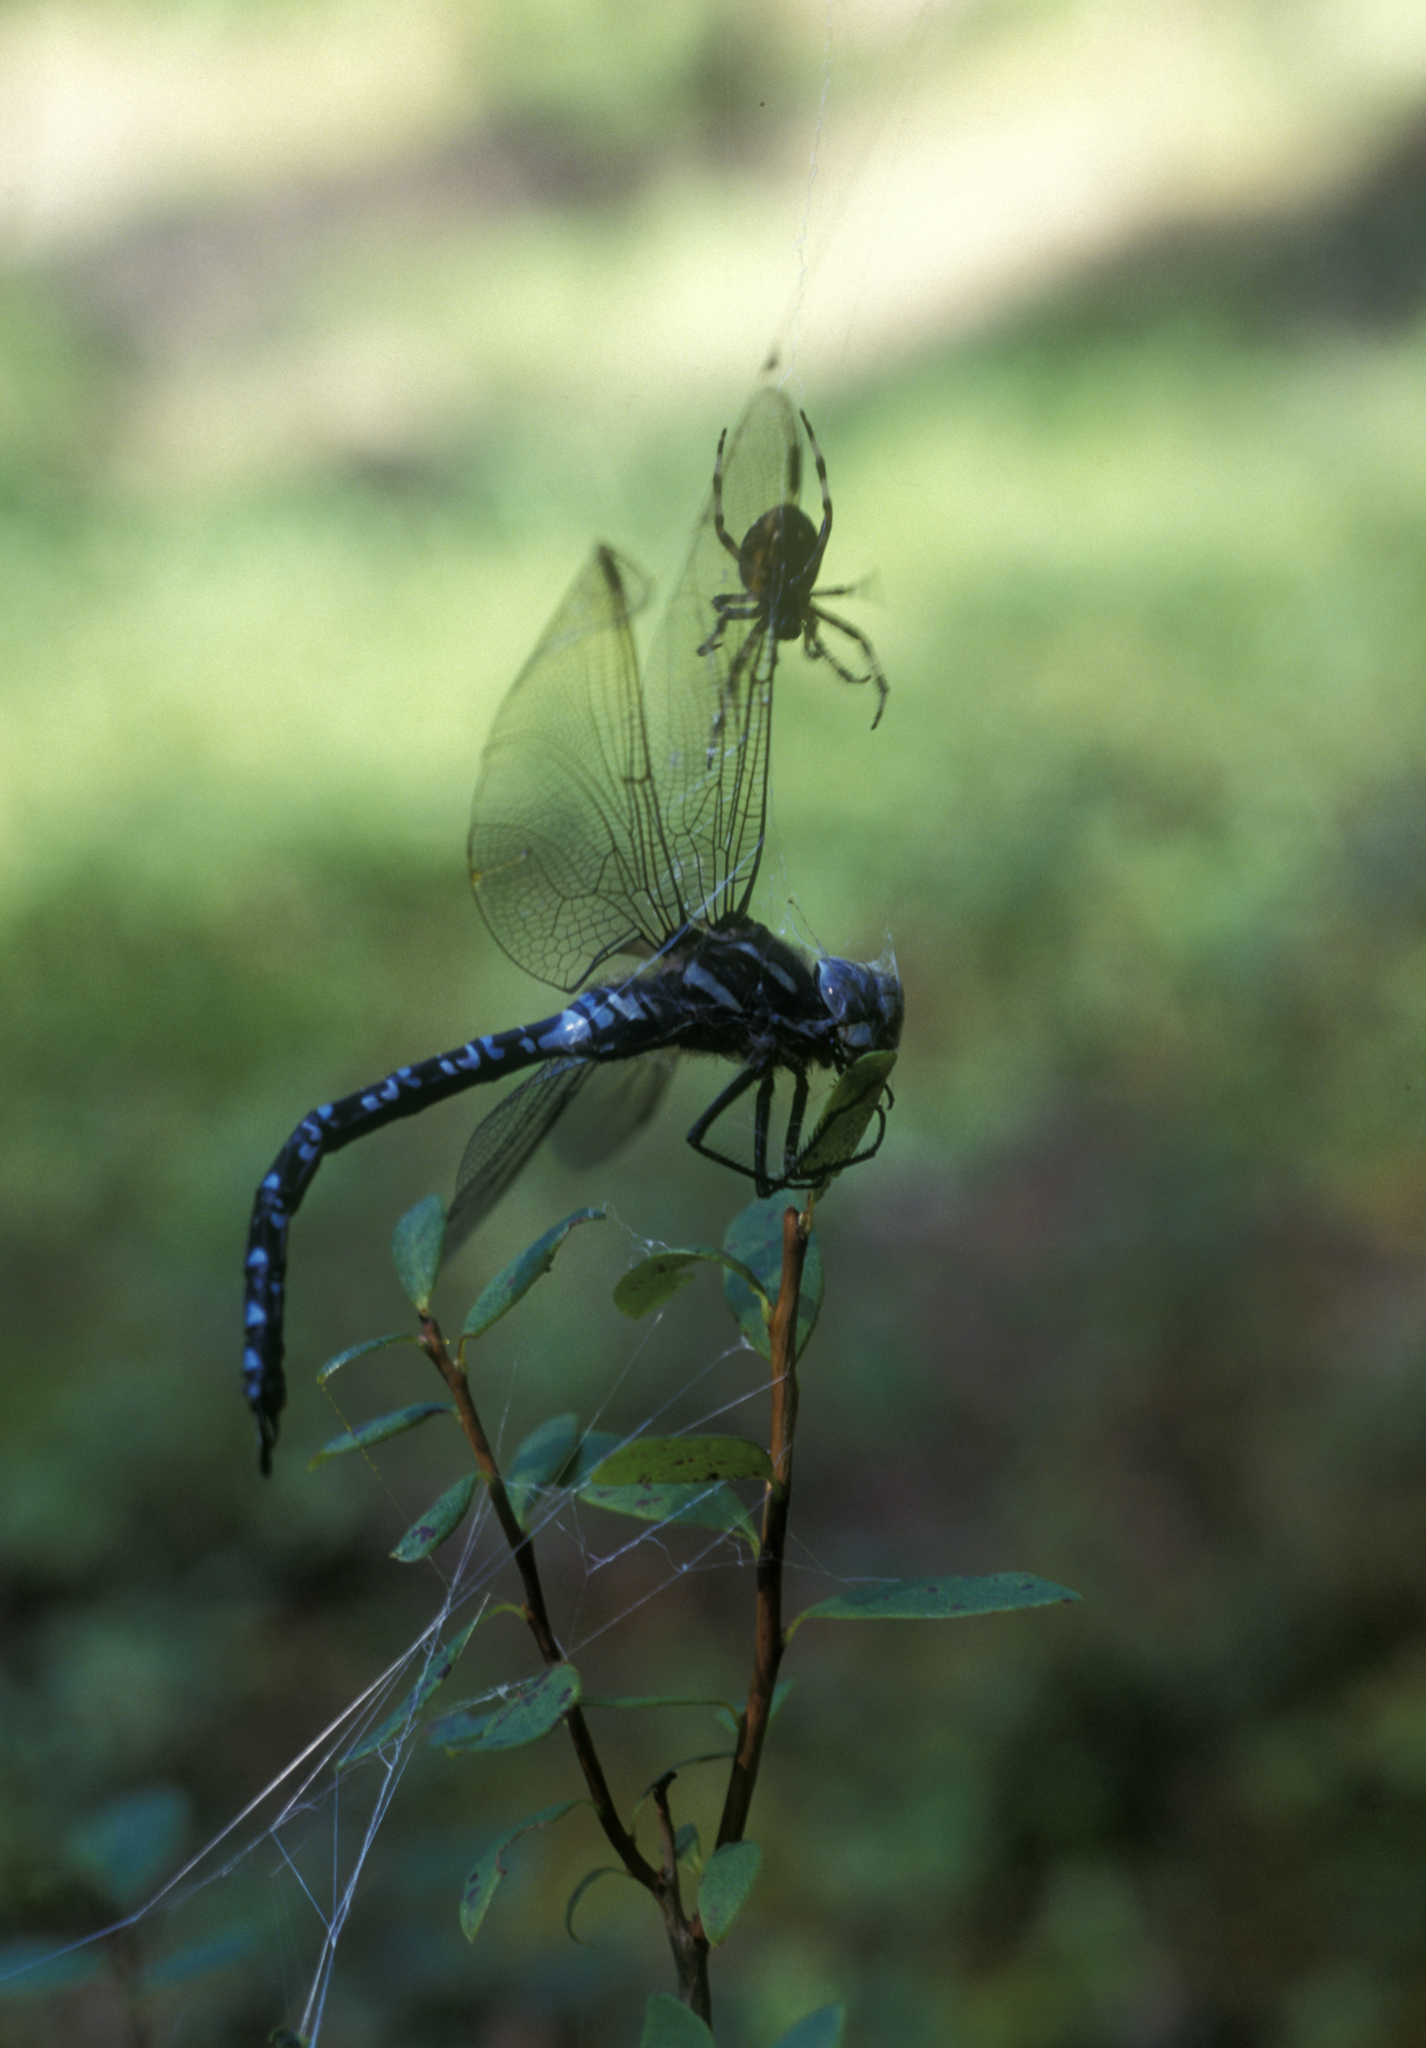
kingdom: Animalia
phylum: Arthropoda
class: Insecta
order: Odonata
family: Aeshnidae
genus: Aeshna
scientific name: Aeshna crenata
